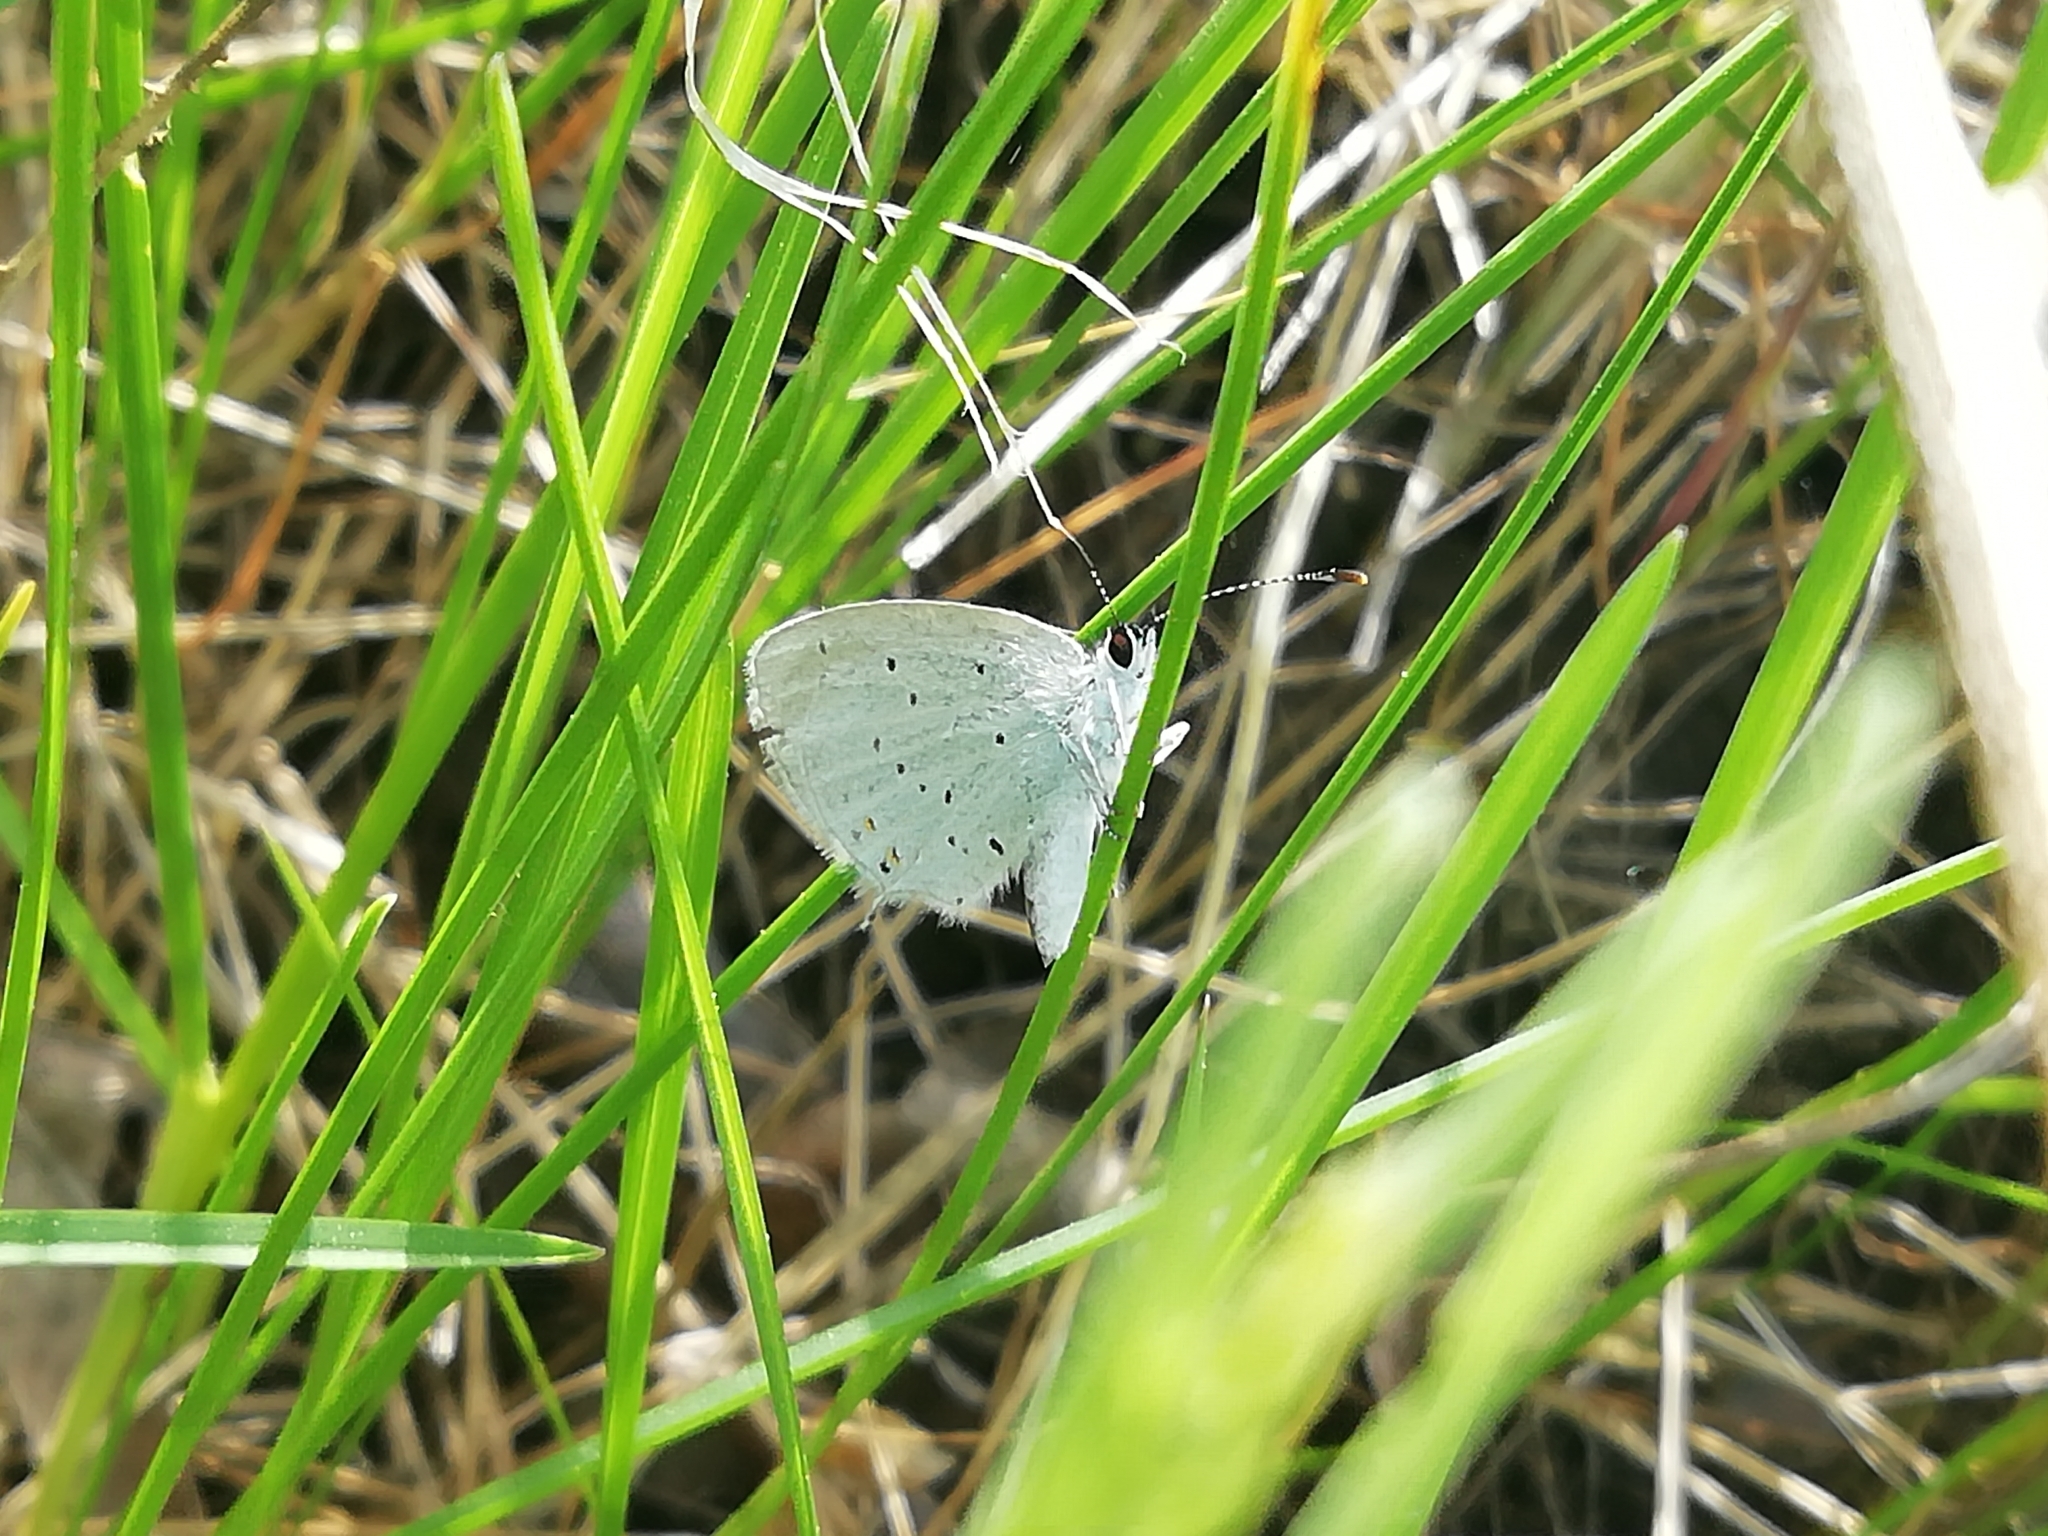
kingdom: Animalia
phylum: Arthropoda
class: Insecta
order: Lepidoptera
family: Lycaenidae
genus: Elkalyce
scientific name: Elkalyce argiades
